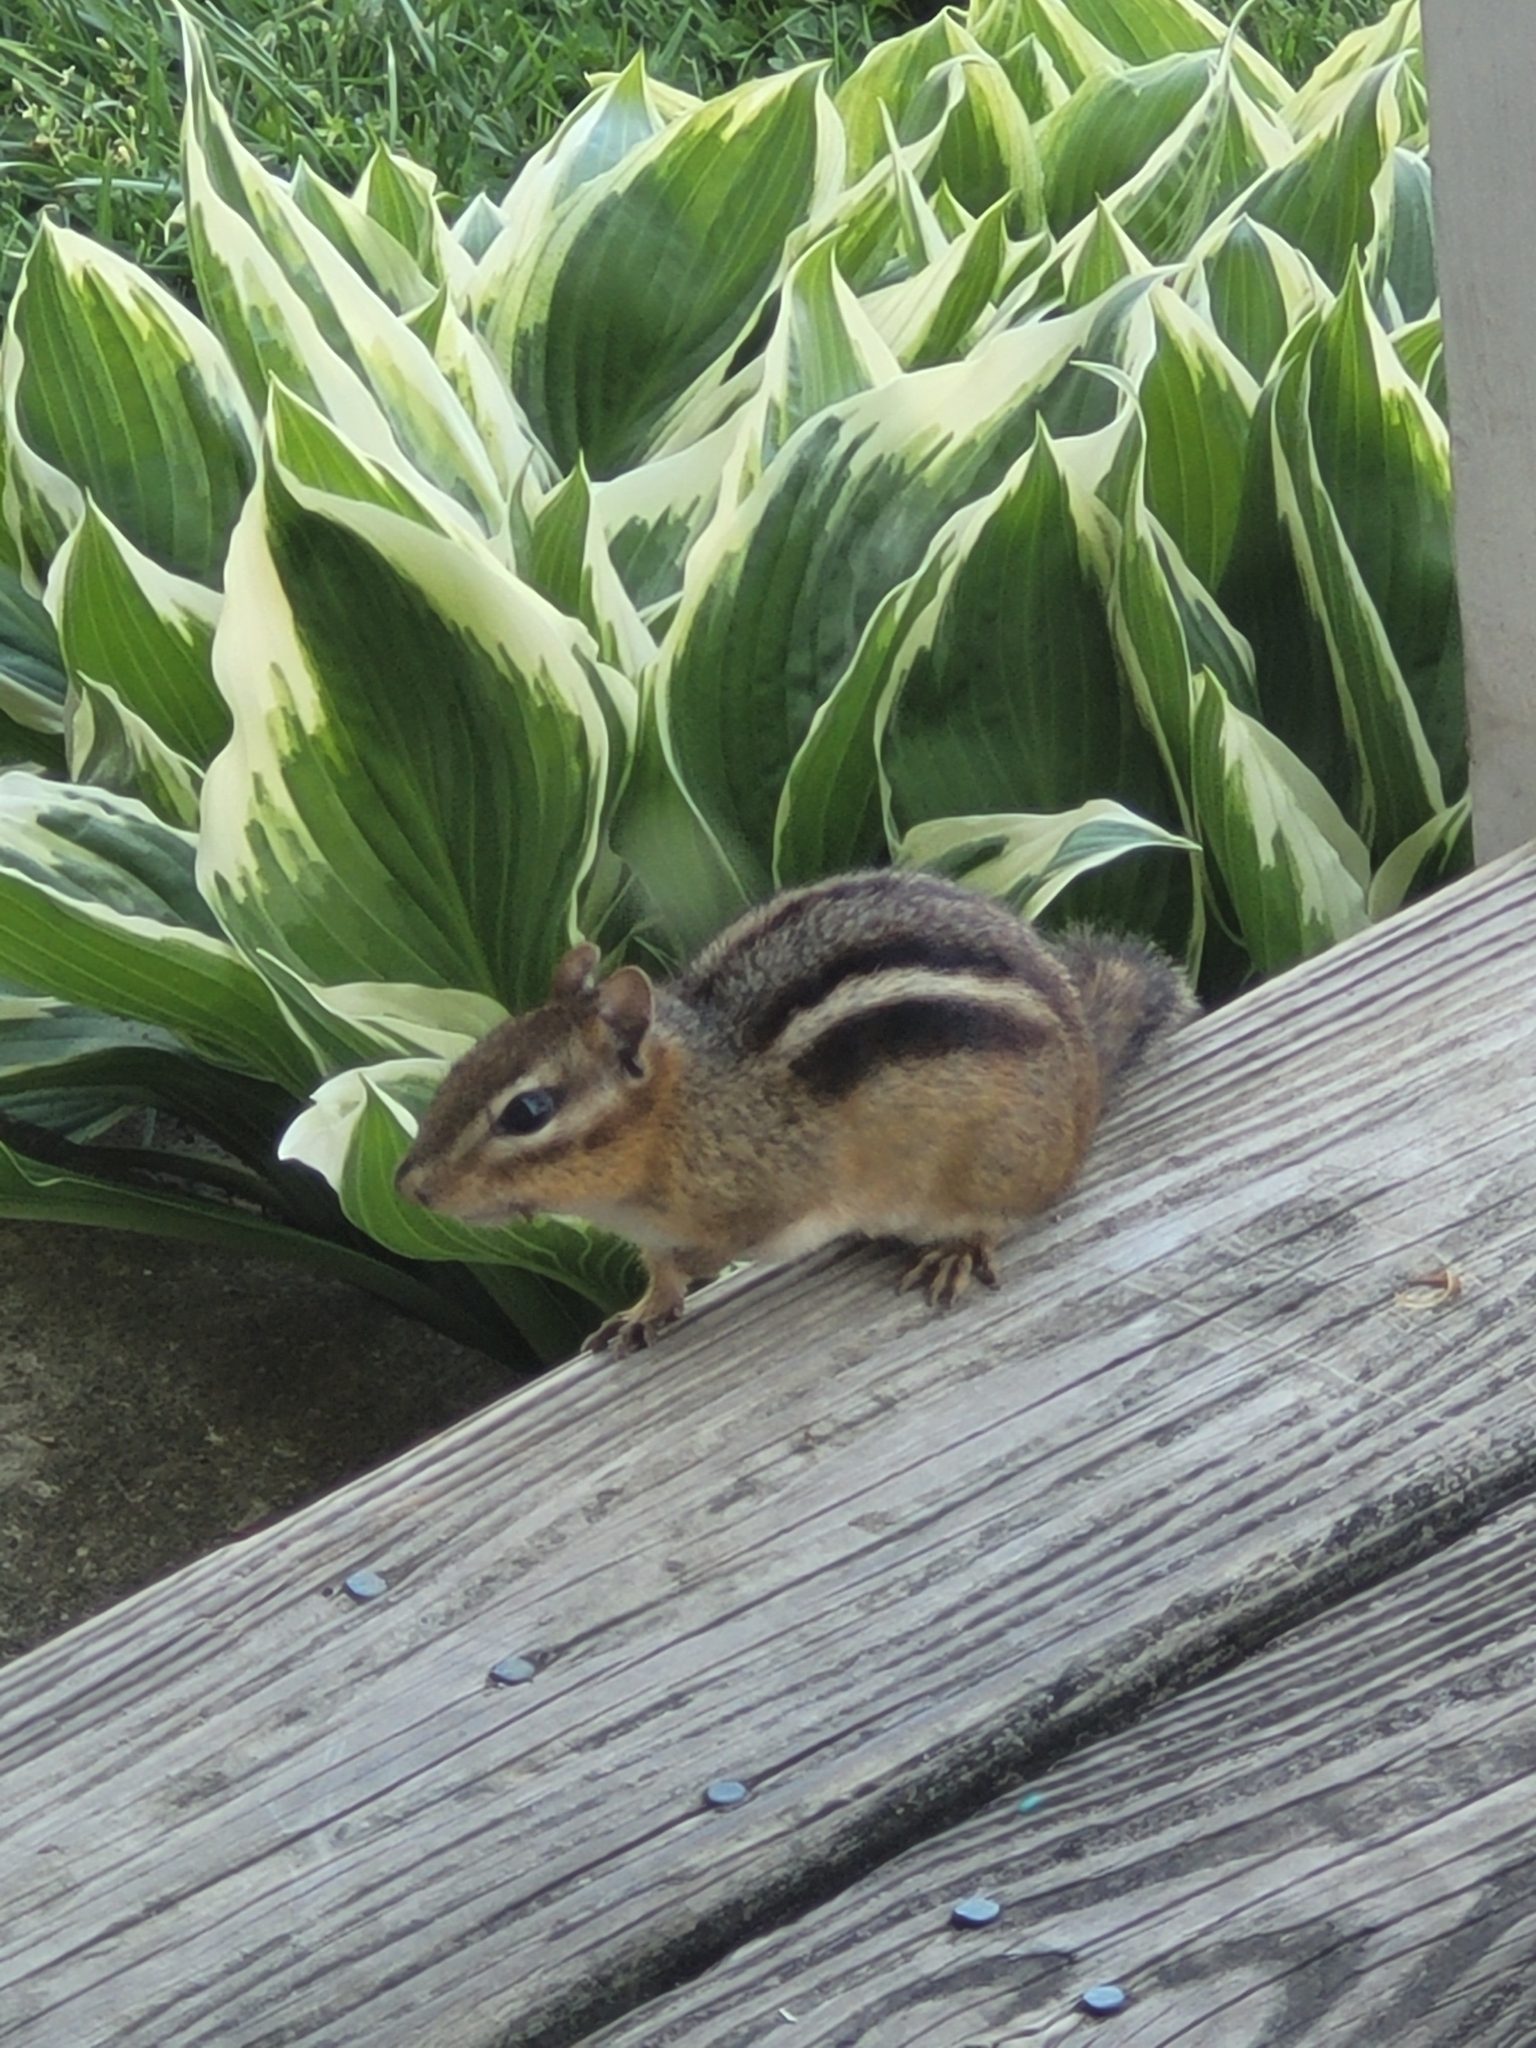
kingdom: Animalia
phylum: Chordata
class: Mammalia
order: Rodentia
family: Sciuridae
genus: Tamias
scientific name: Tamias striatus
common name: Eastern chipmunk
